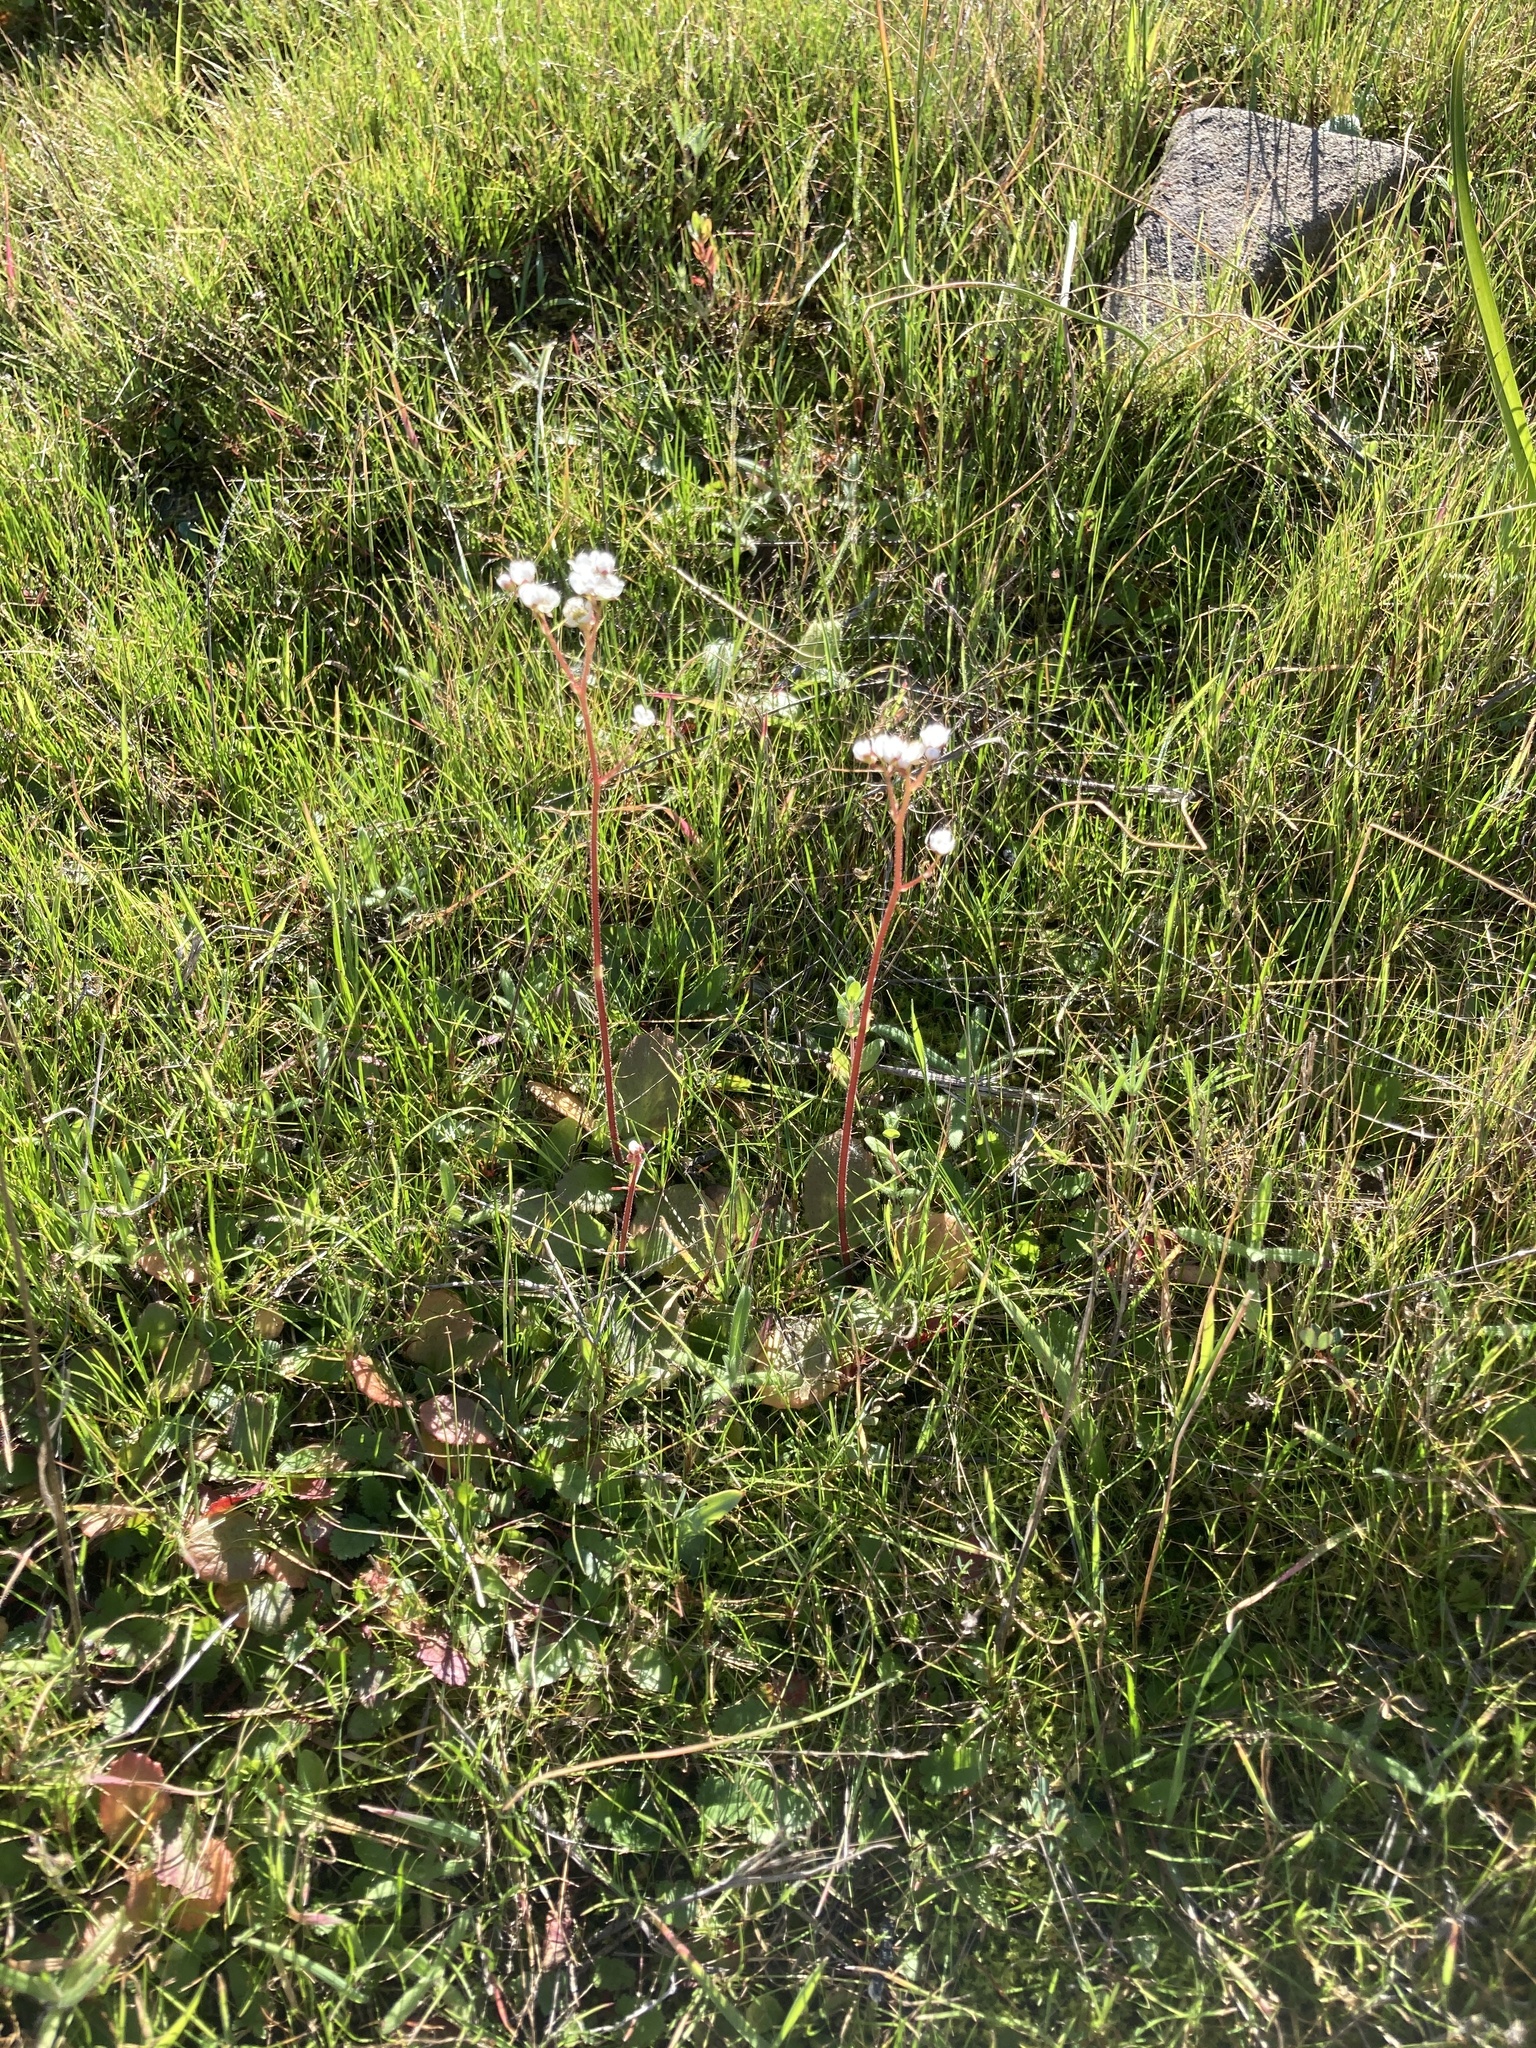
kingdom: Plantae
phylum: Tracheophyta
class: Magnoliopsida
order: Saxifragales
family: Saxifragaceae
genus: Micranthes
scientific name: Micranthes californica
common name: California saxifrage
